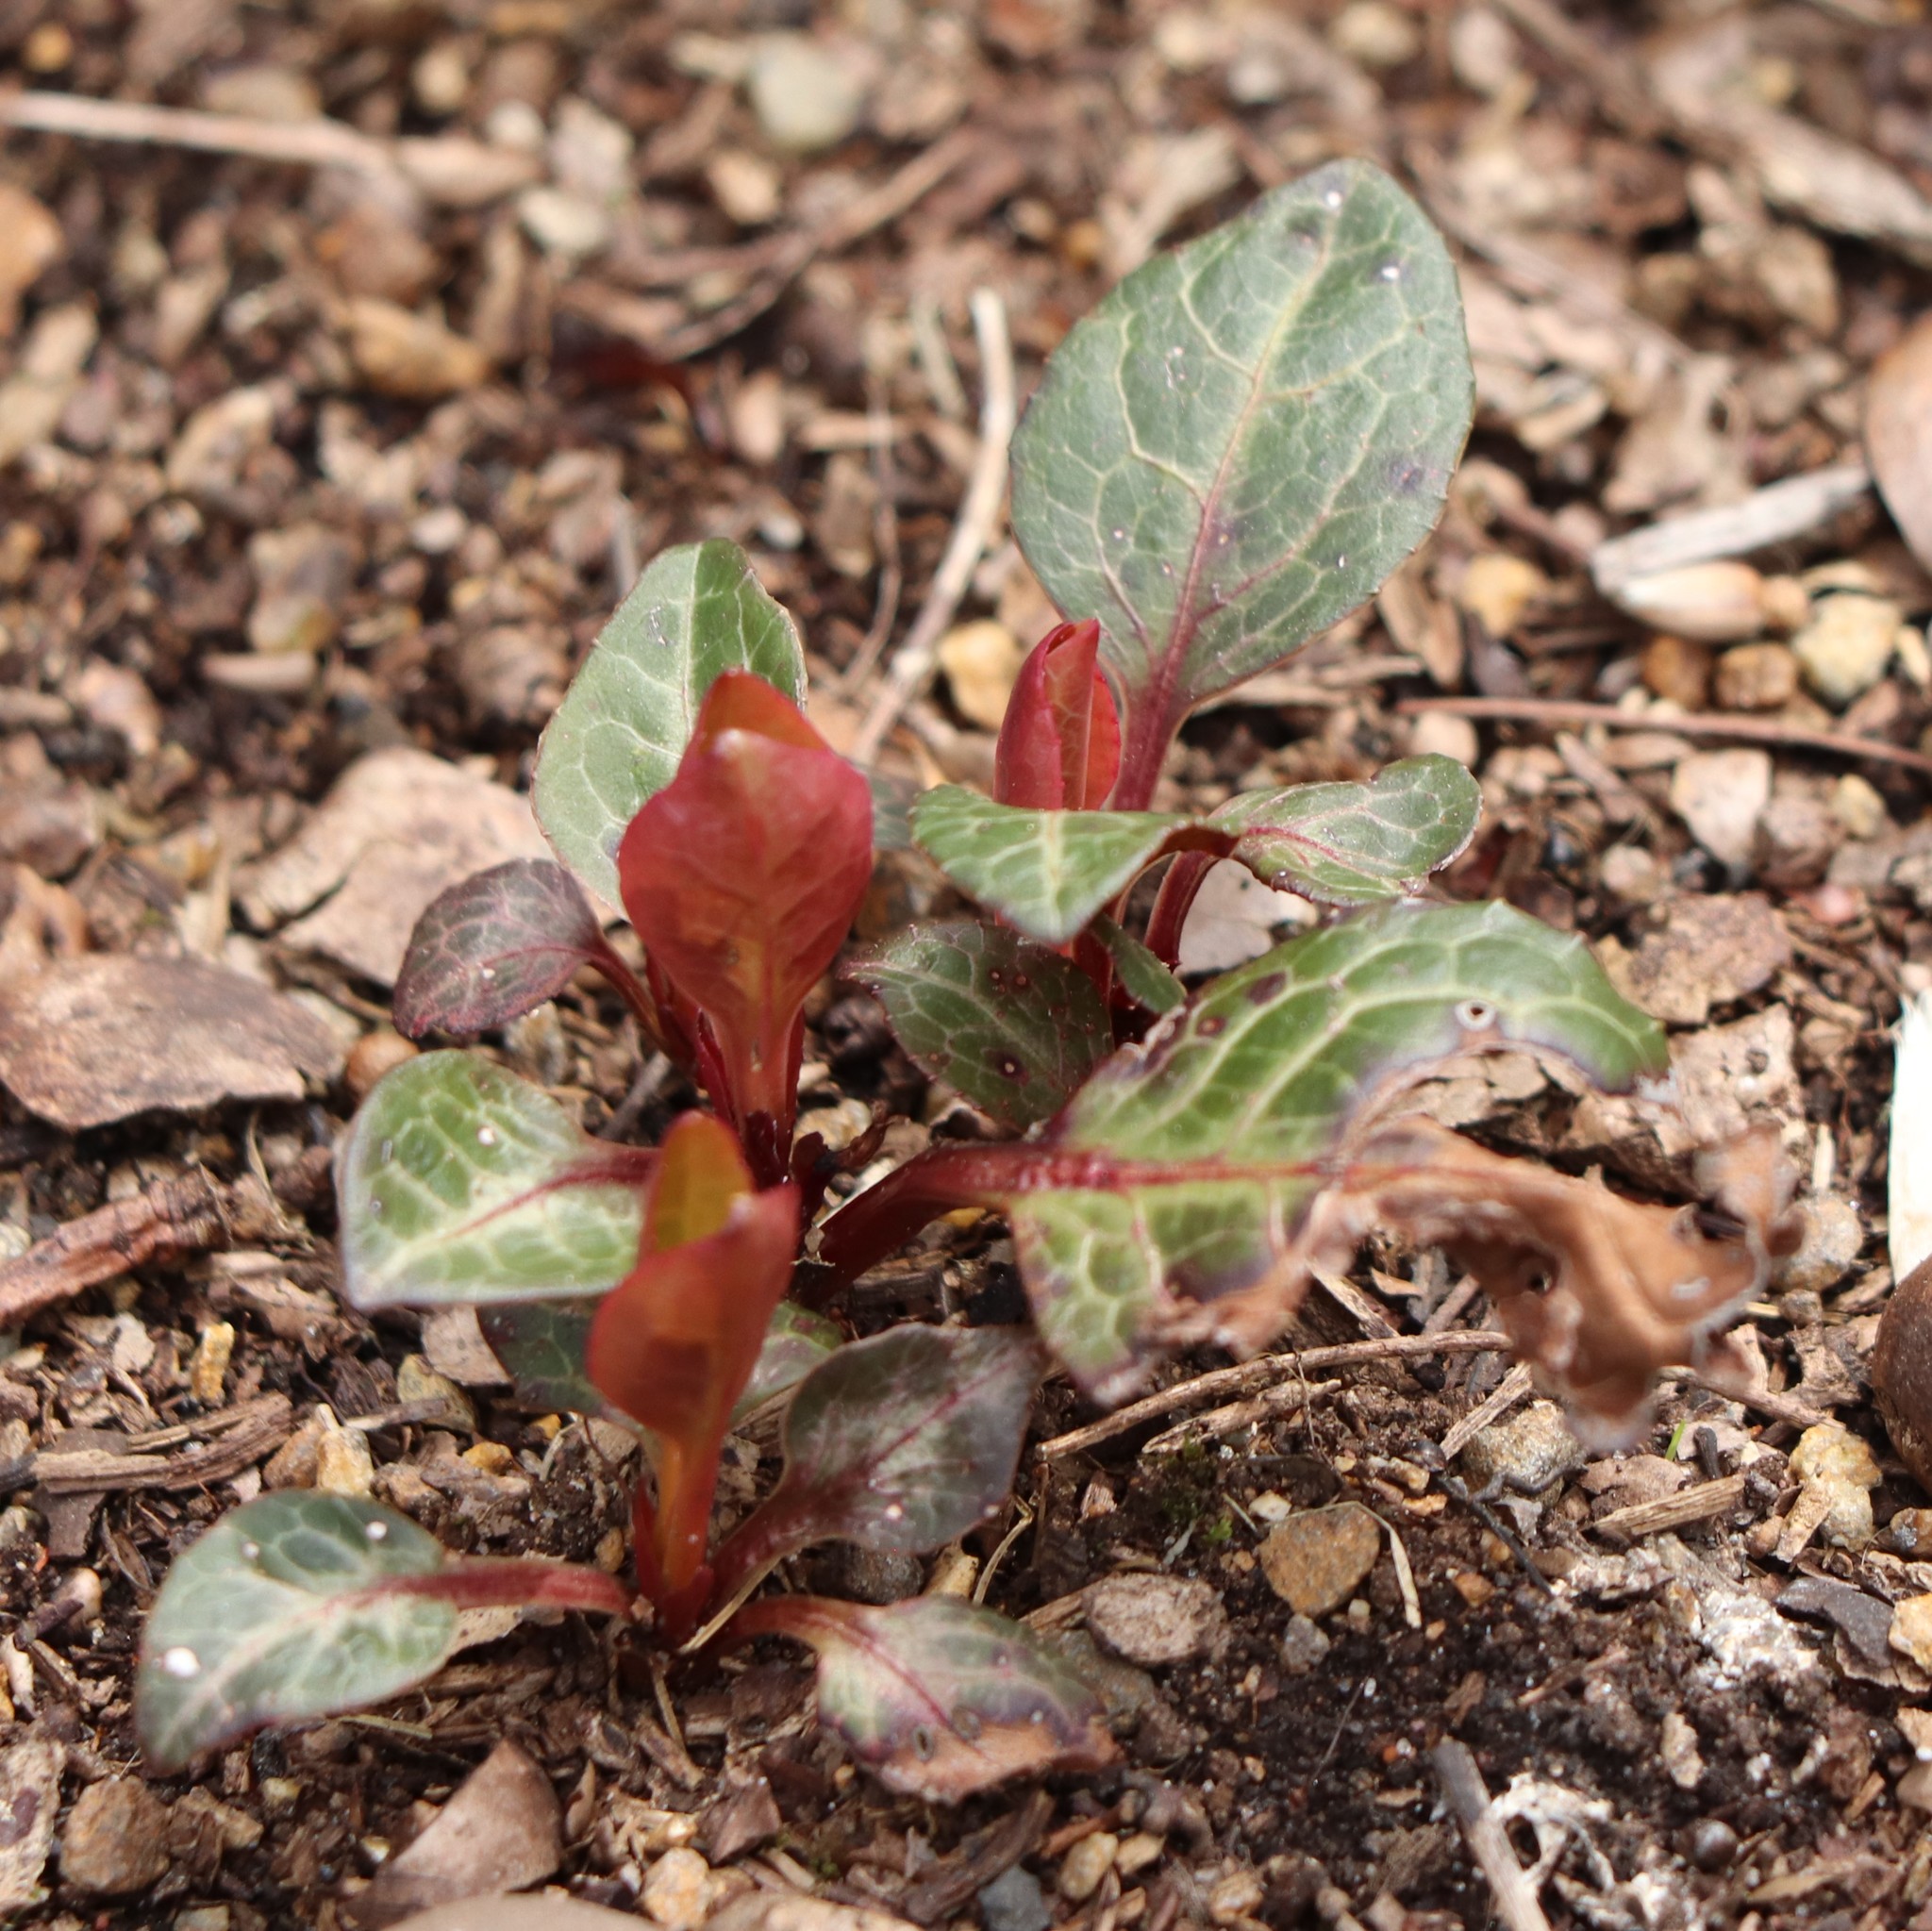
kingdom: Plantae
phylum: Tracheophyta
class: Magnoliopsida
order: Ericales
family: Ericaceae
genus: Pyrola
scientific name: Pyrola americana
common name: American wintergreen
